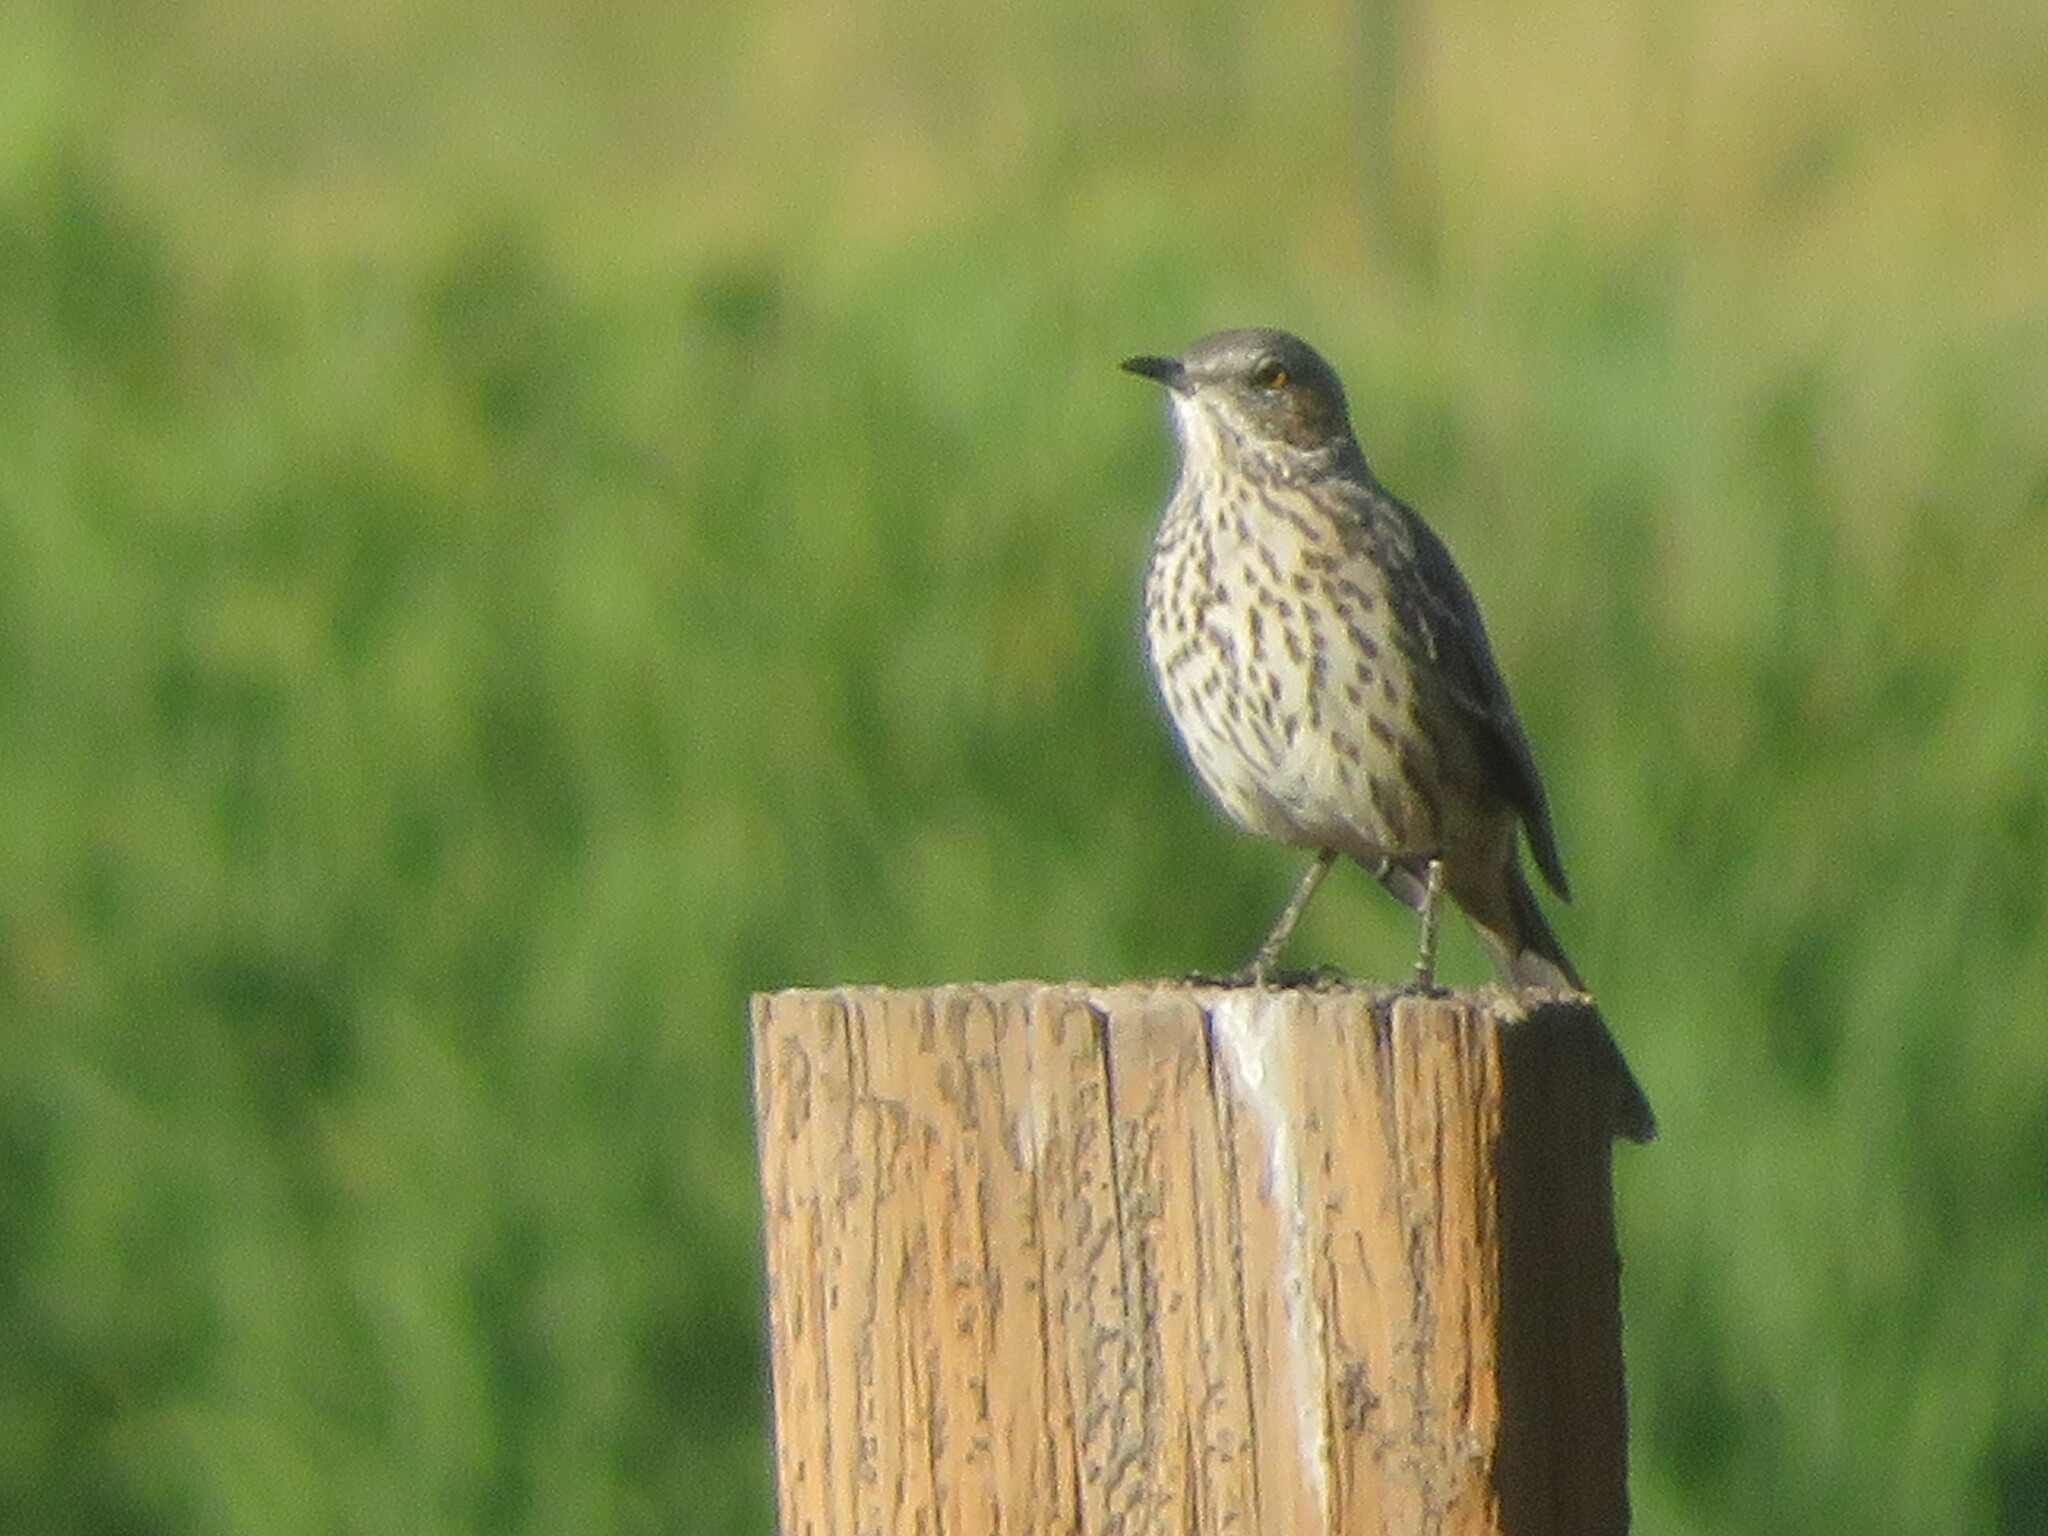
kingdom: Animalia
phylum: Chordata
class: Aves
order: Passeriformes
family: Mimidae
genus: Oreoscoptes
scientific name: Oreoscoptes montanus
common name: Sage thrasher
